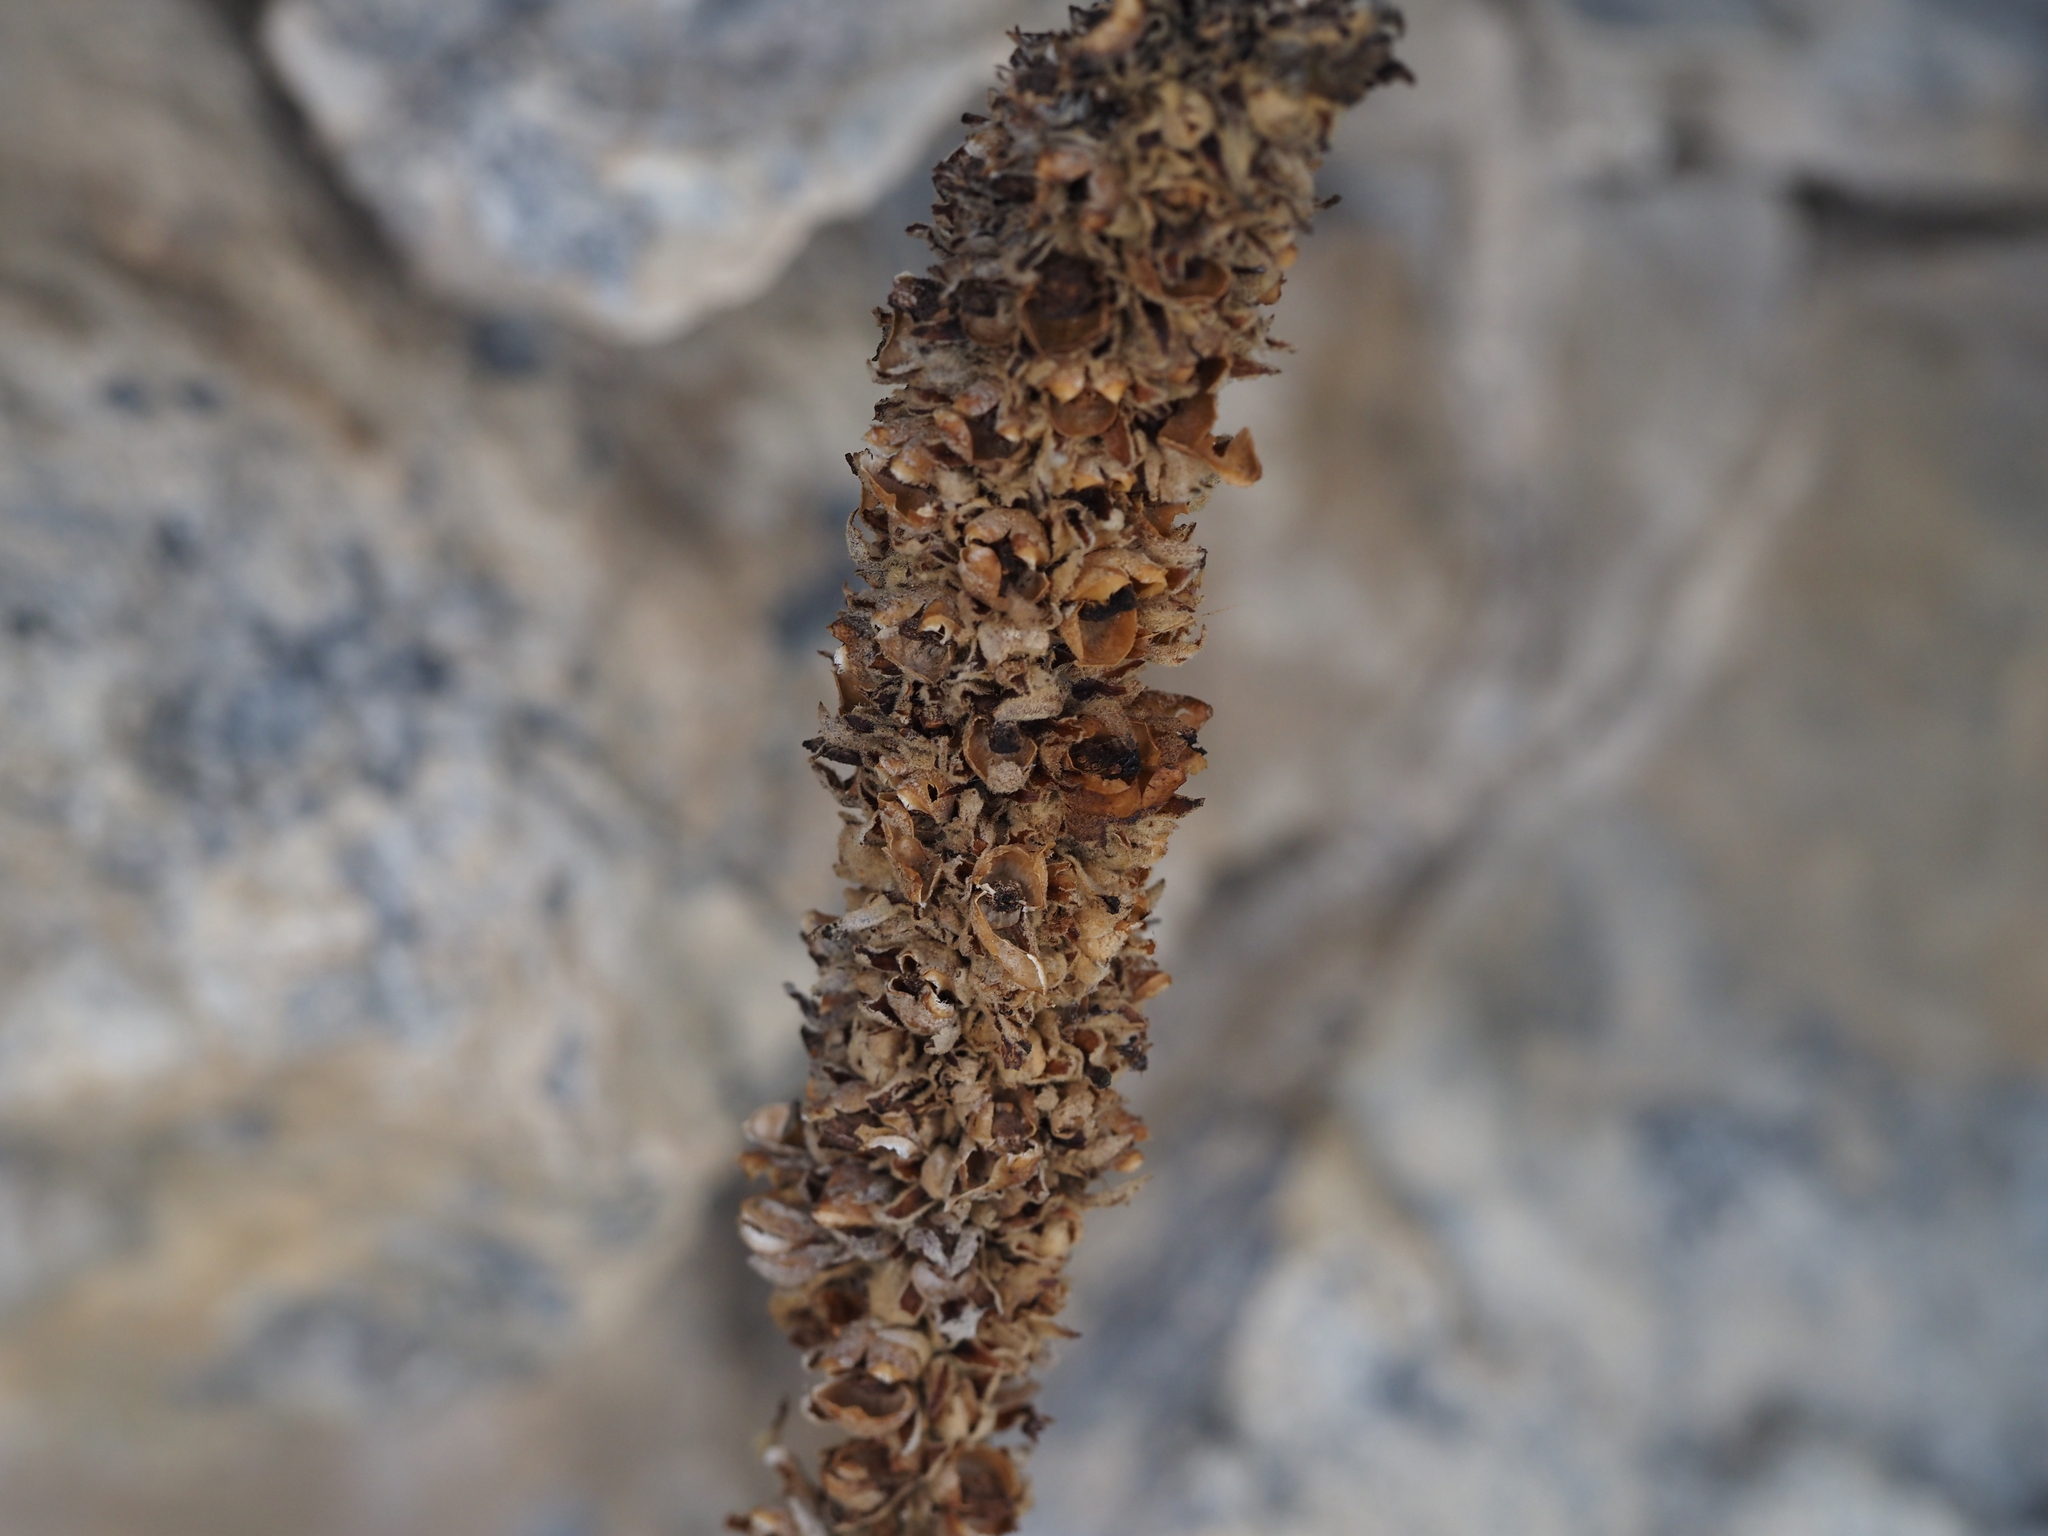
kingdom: Plantae
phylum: Tracheophyta
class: Magnoliopsida
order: Lamiales
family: Scrophulariaceae
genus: Verbascum
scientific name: Verbascum thapsus
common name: Common mullein
